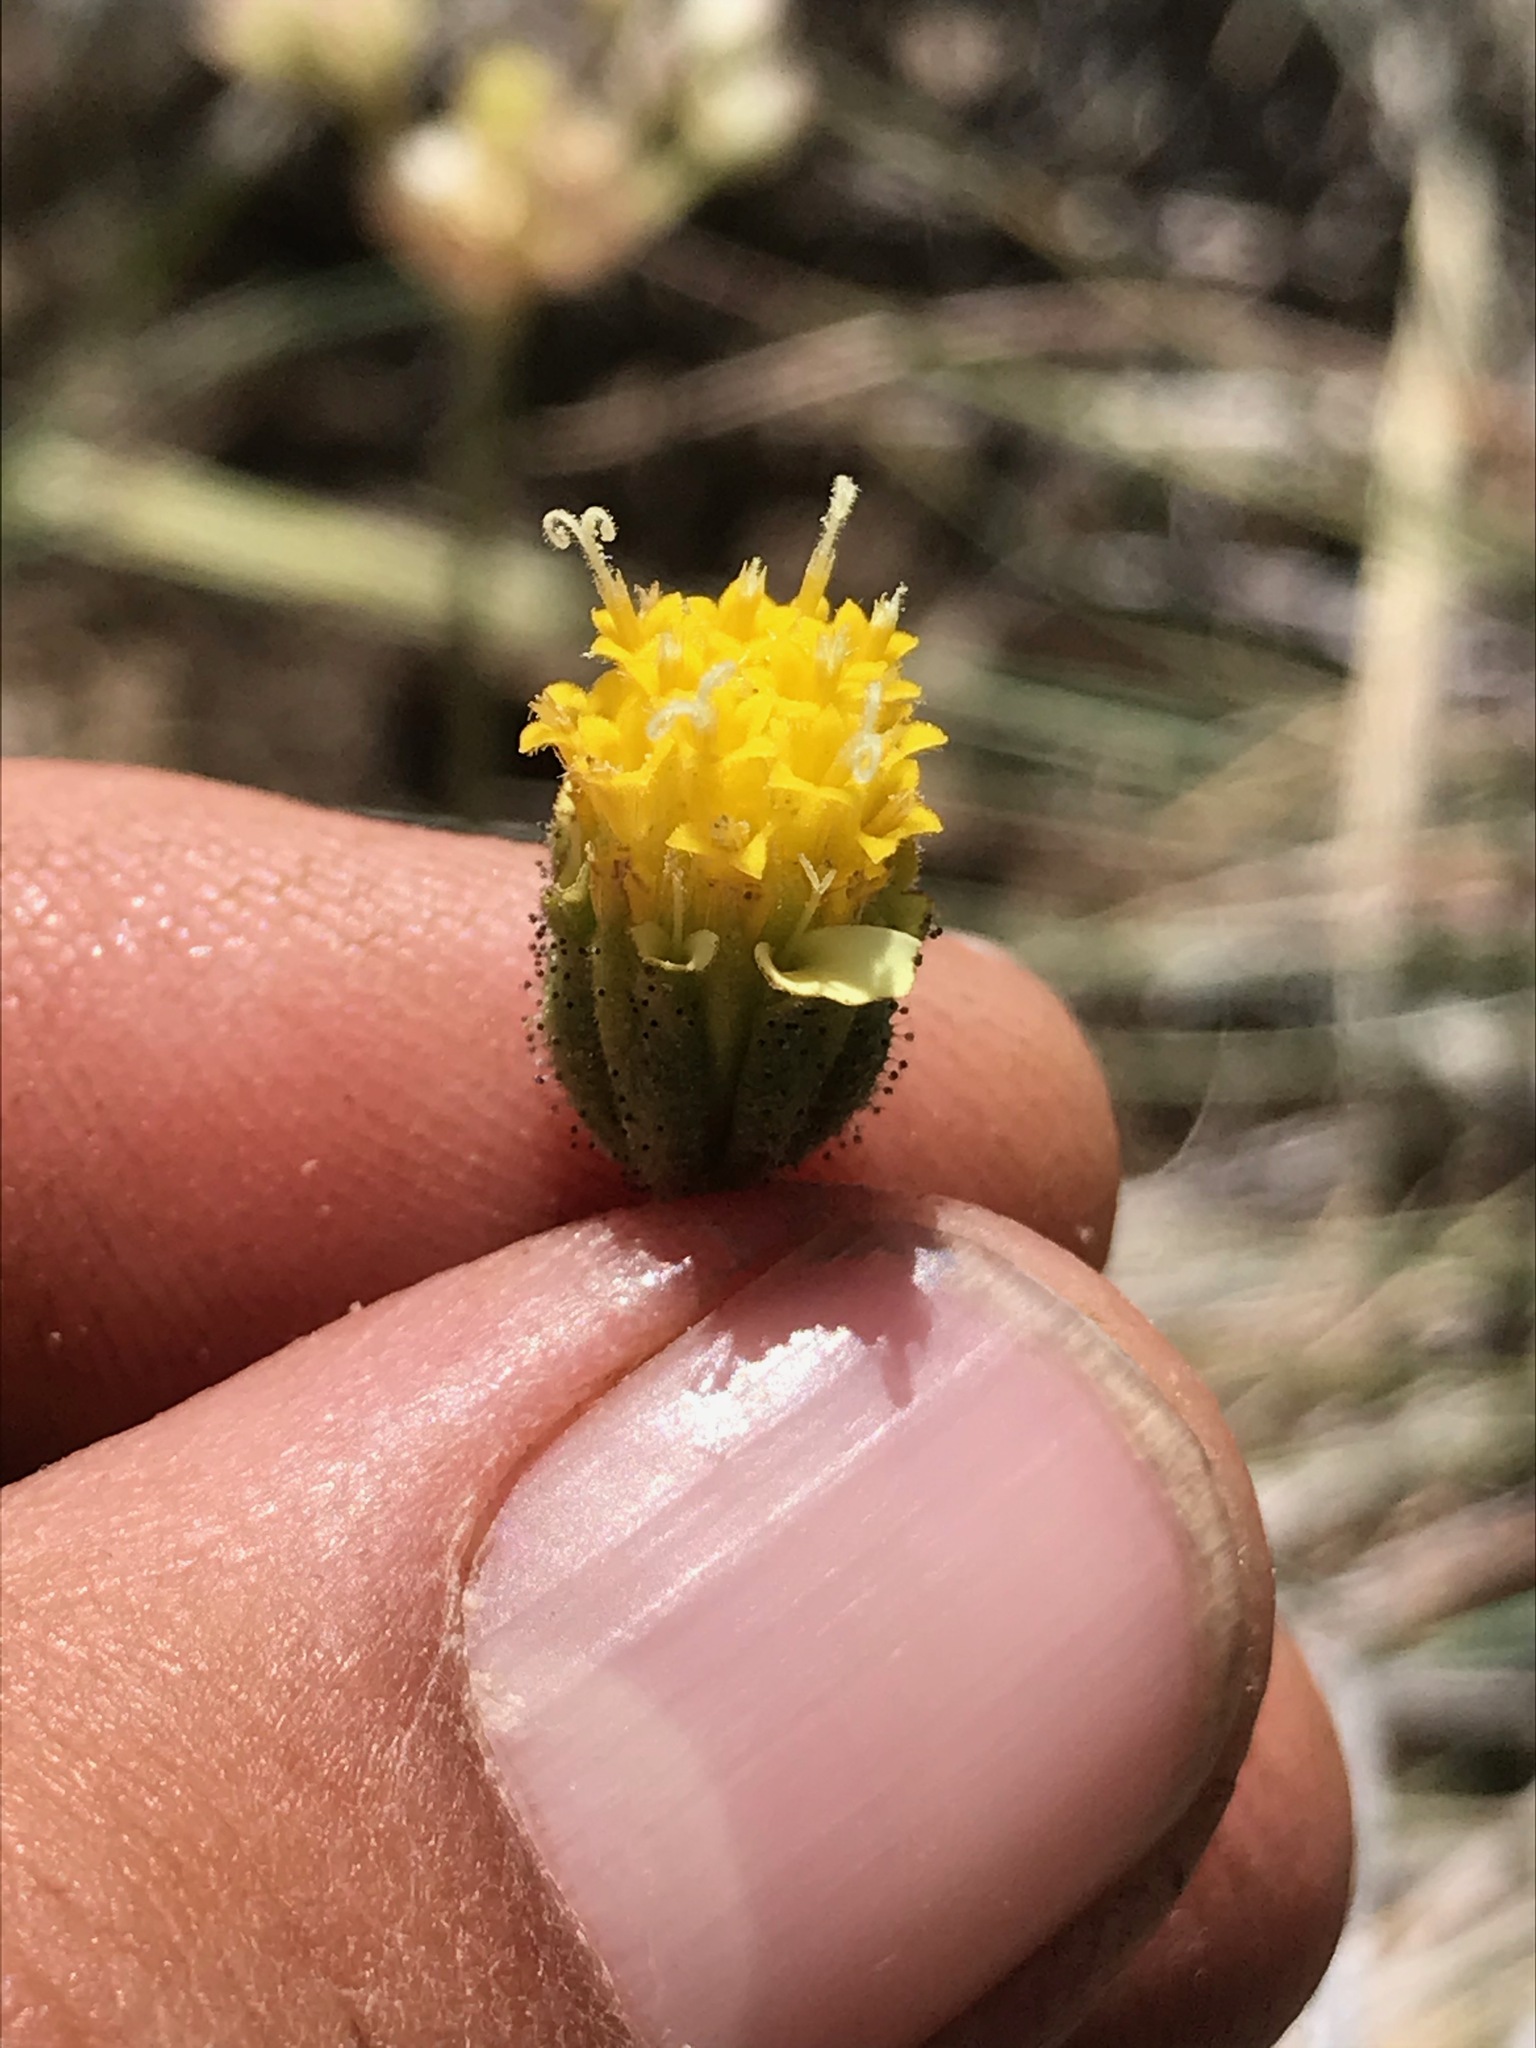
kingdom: Plantae
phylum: Tracheophyta
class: Magnoliopsida
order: Asterales
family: Asteraceae
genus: Layia
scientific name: Layia heterotricha
